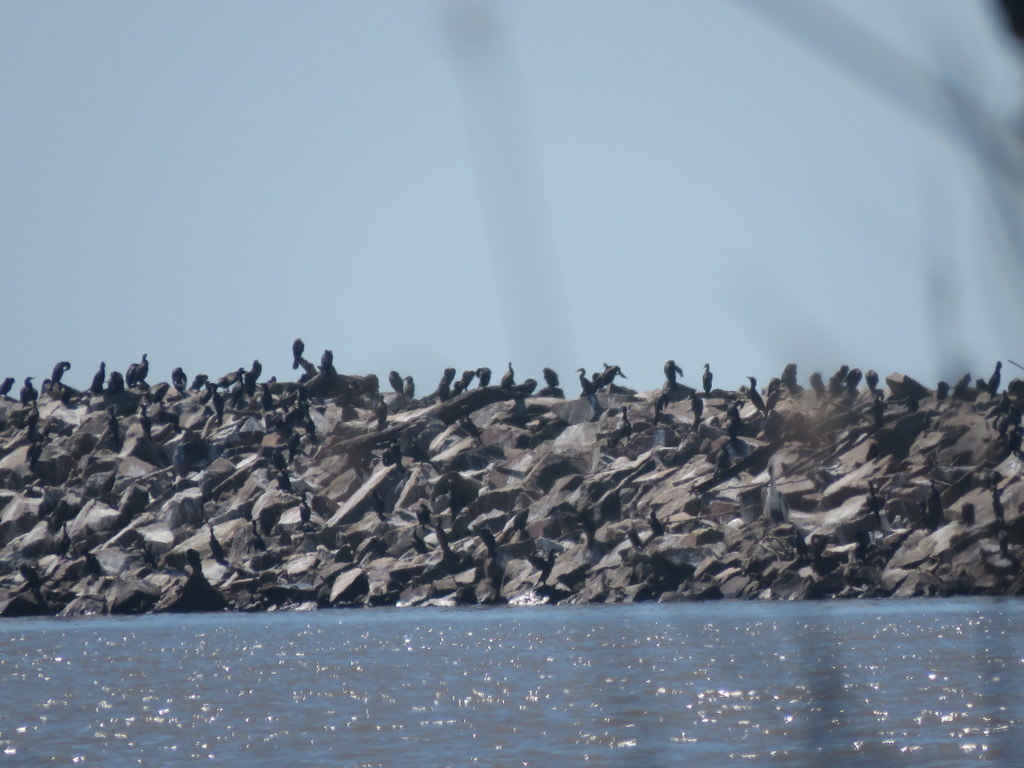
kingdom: Animalia
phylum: Chordata
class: Aves
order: Suliformes
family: Phalacrocoracidae
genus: Phalacrocorax
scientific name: Phalacrocorax brasilianus
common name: Neotropic cormorant
